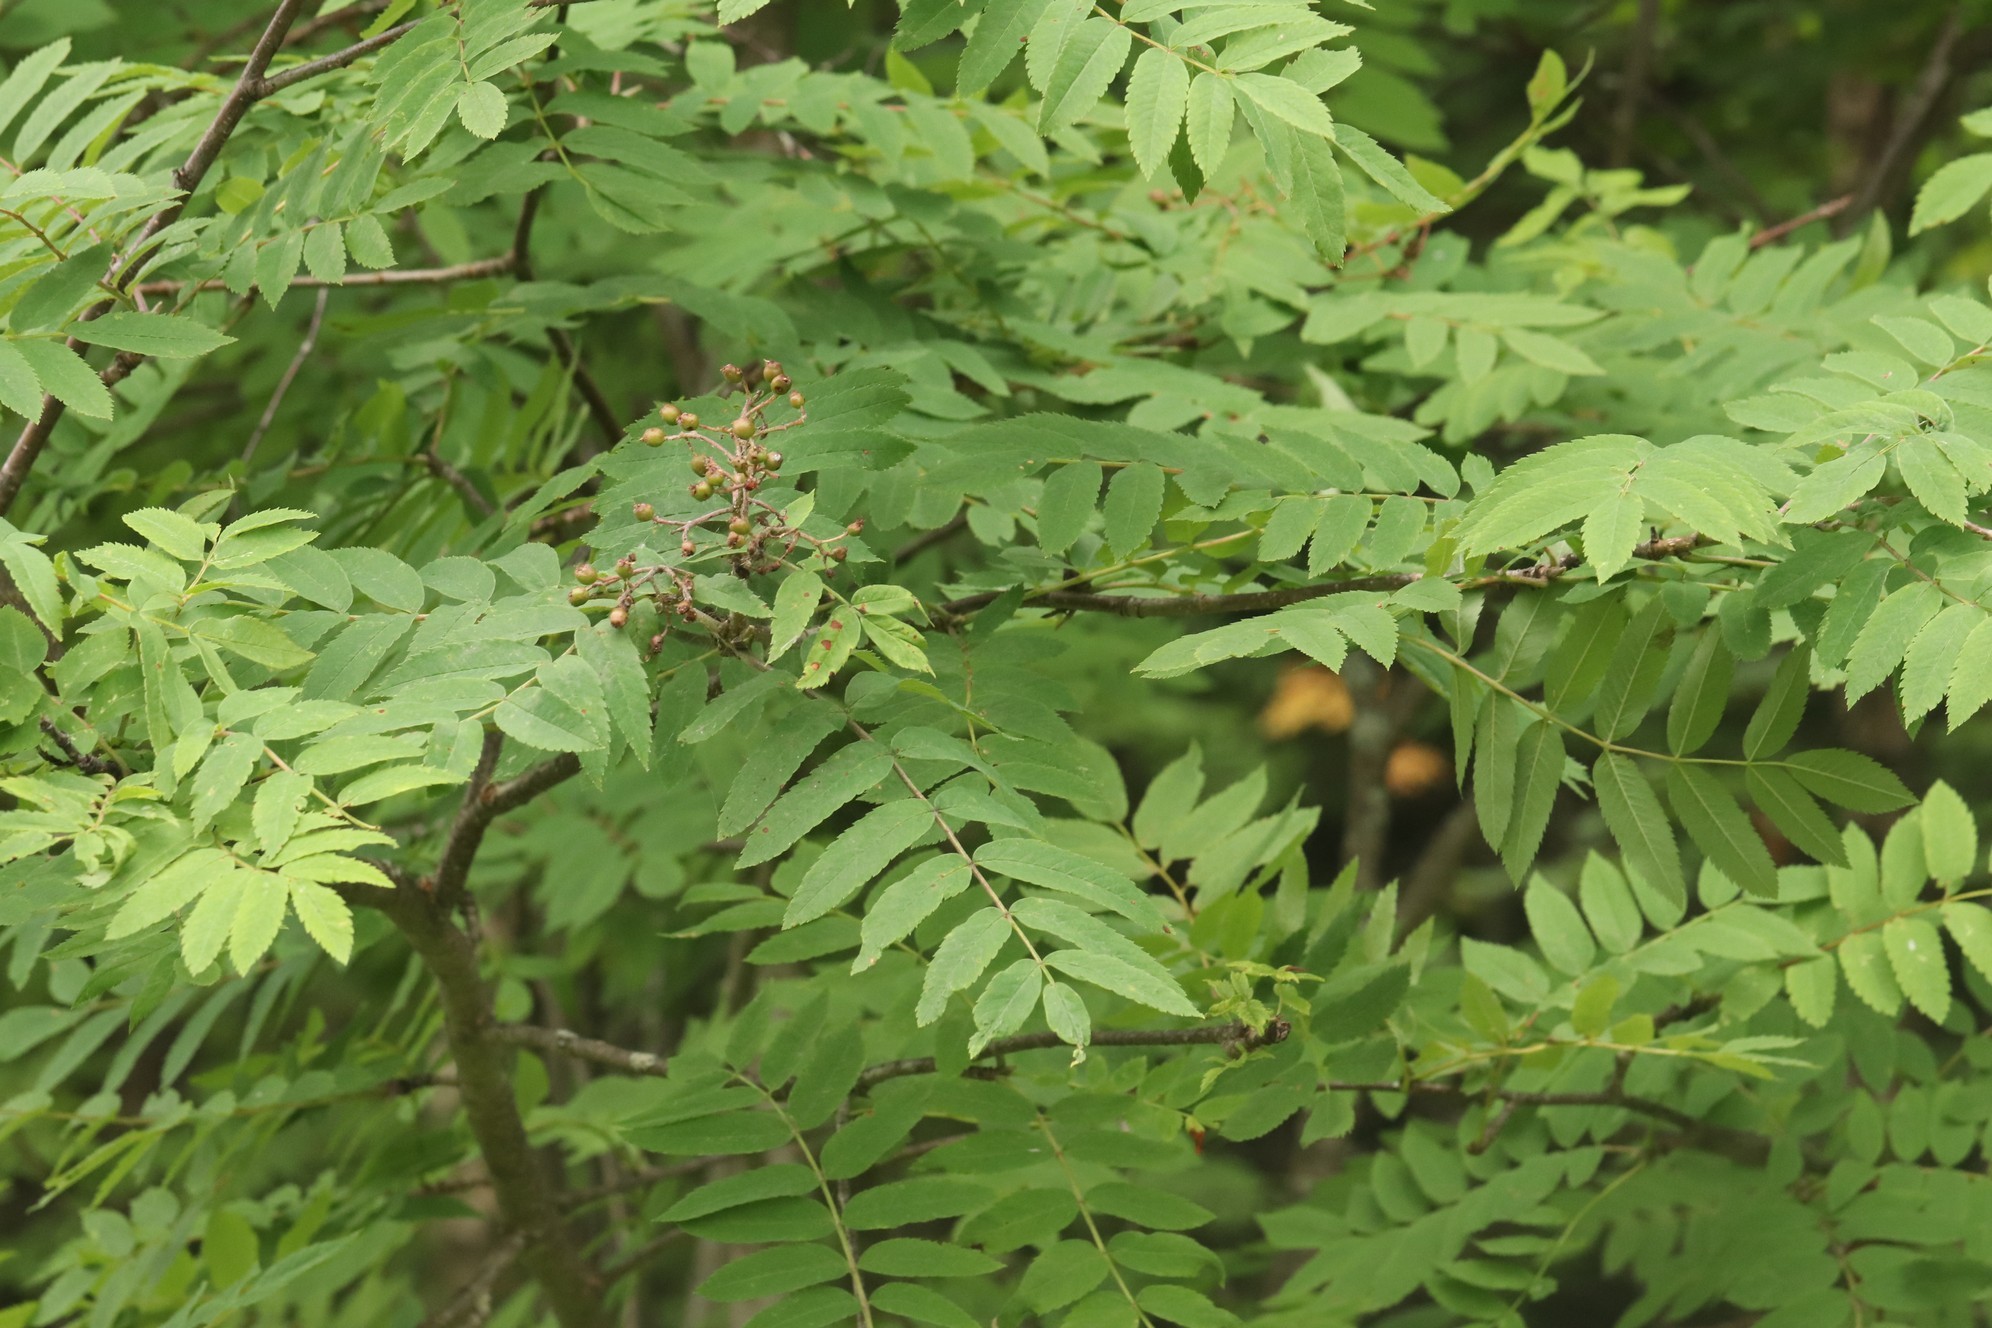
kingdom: Plantae
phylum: Tracheophyta
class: Magnoliopsida
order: Rosales
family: Rosaceae
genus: Sorbus
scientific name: Sorbus aucuparia
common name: Rowan
